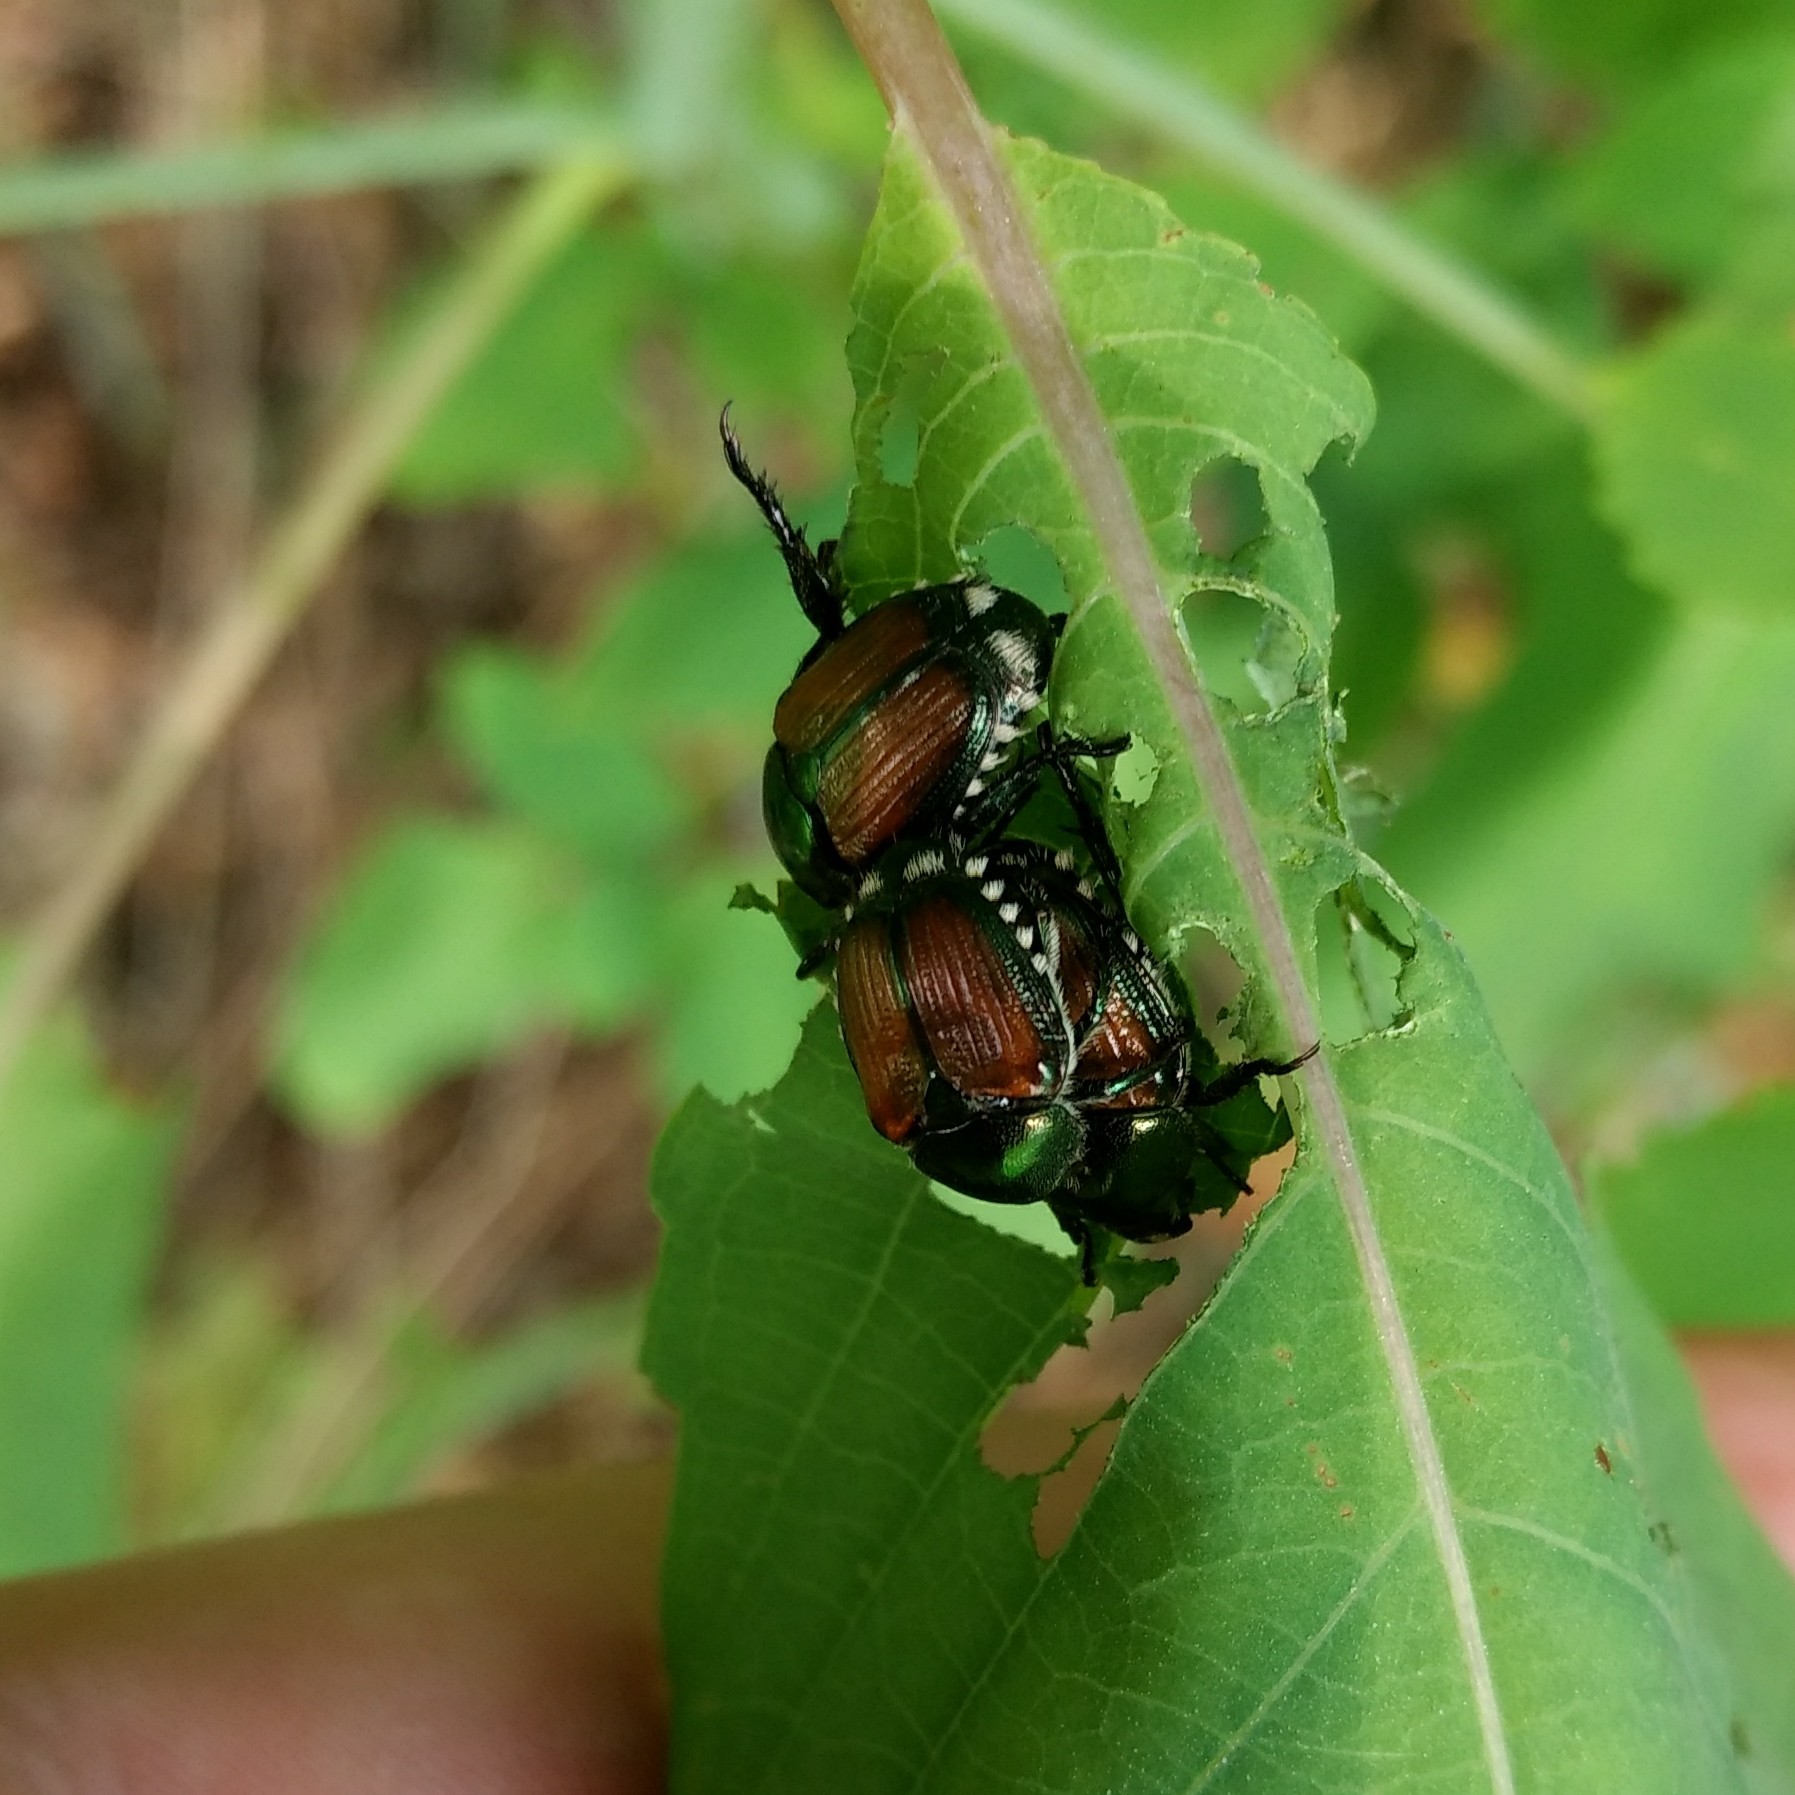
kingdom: Animalia
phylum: Arthropoda
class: Insecta
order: Coleoptera
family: Scarabaeidae
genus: Popillia
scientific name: Popillia japonica
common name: Japanese beetle
